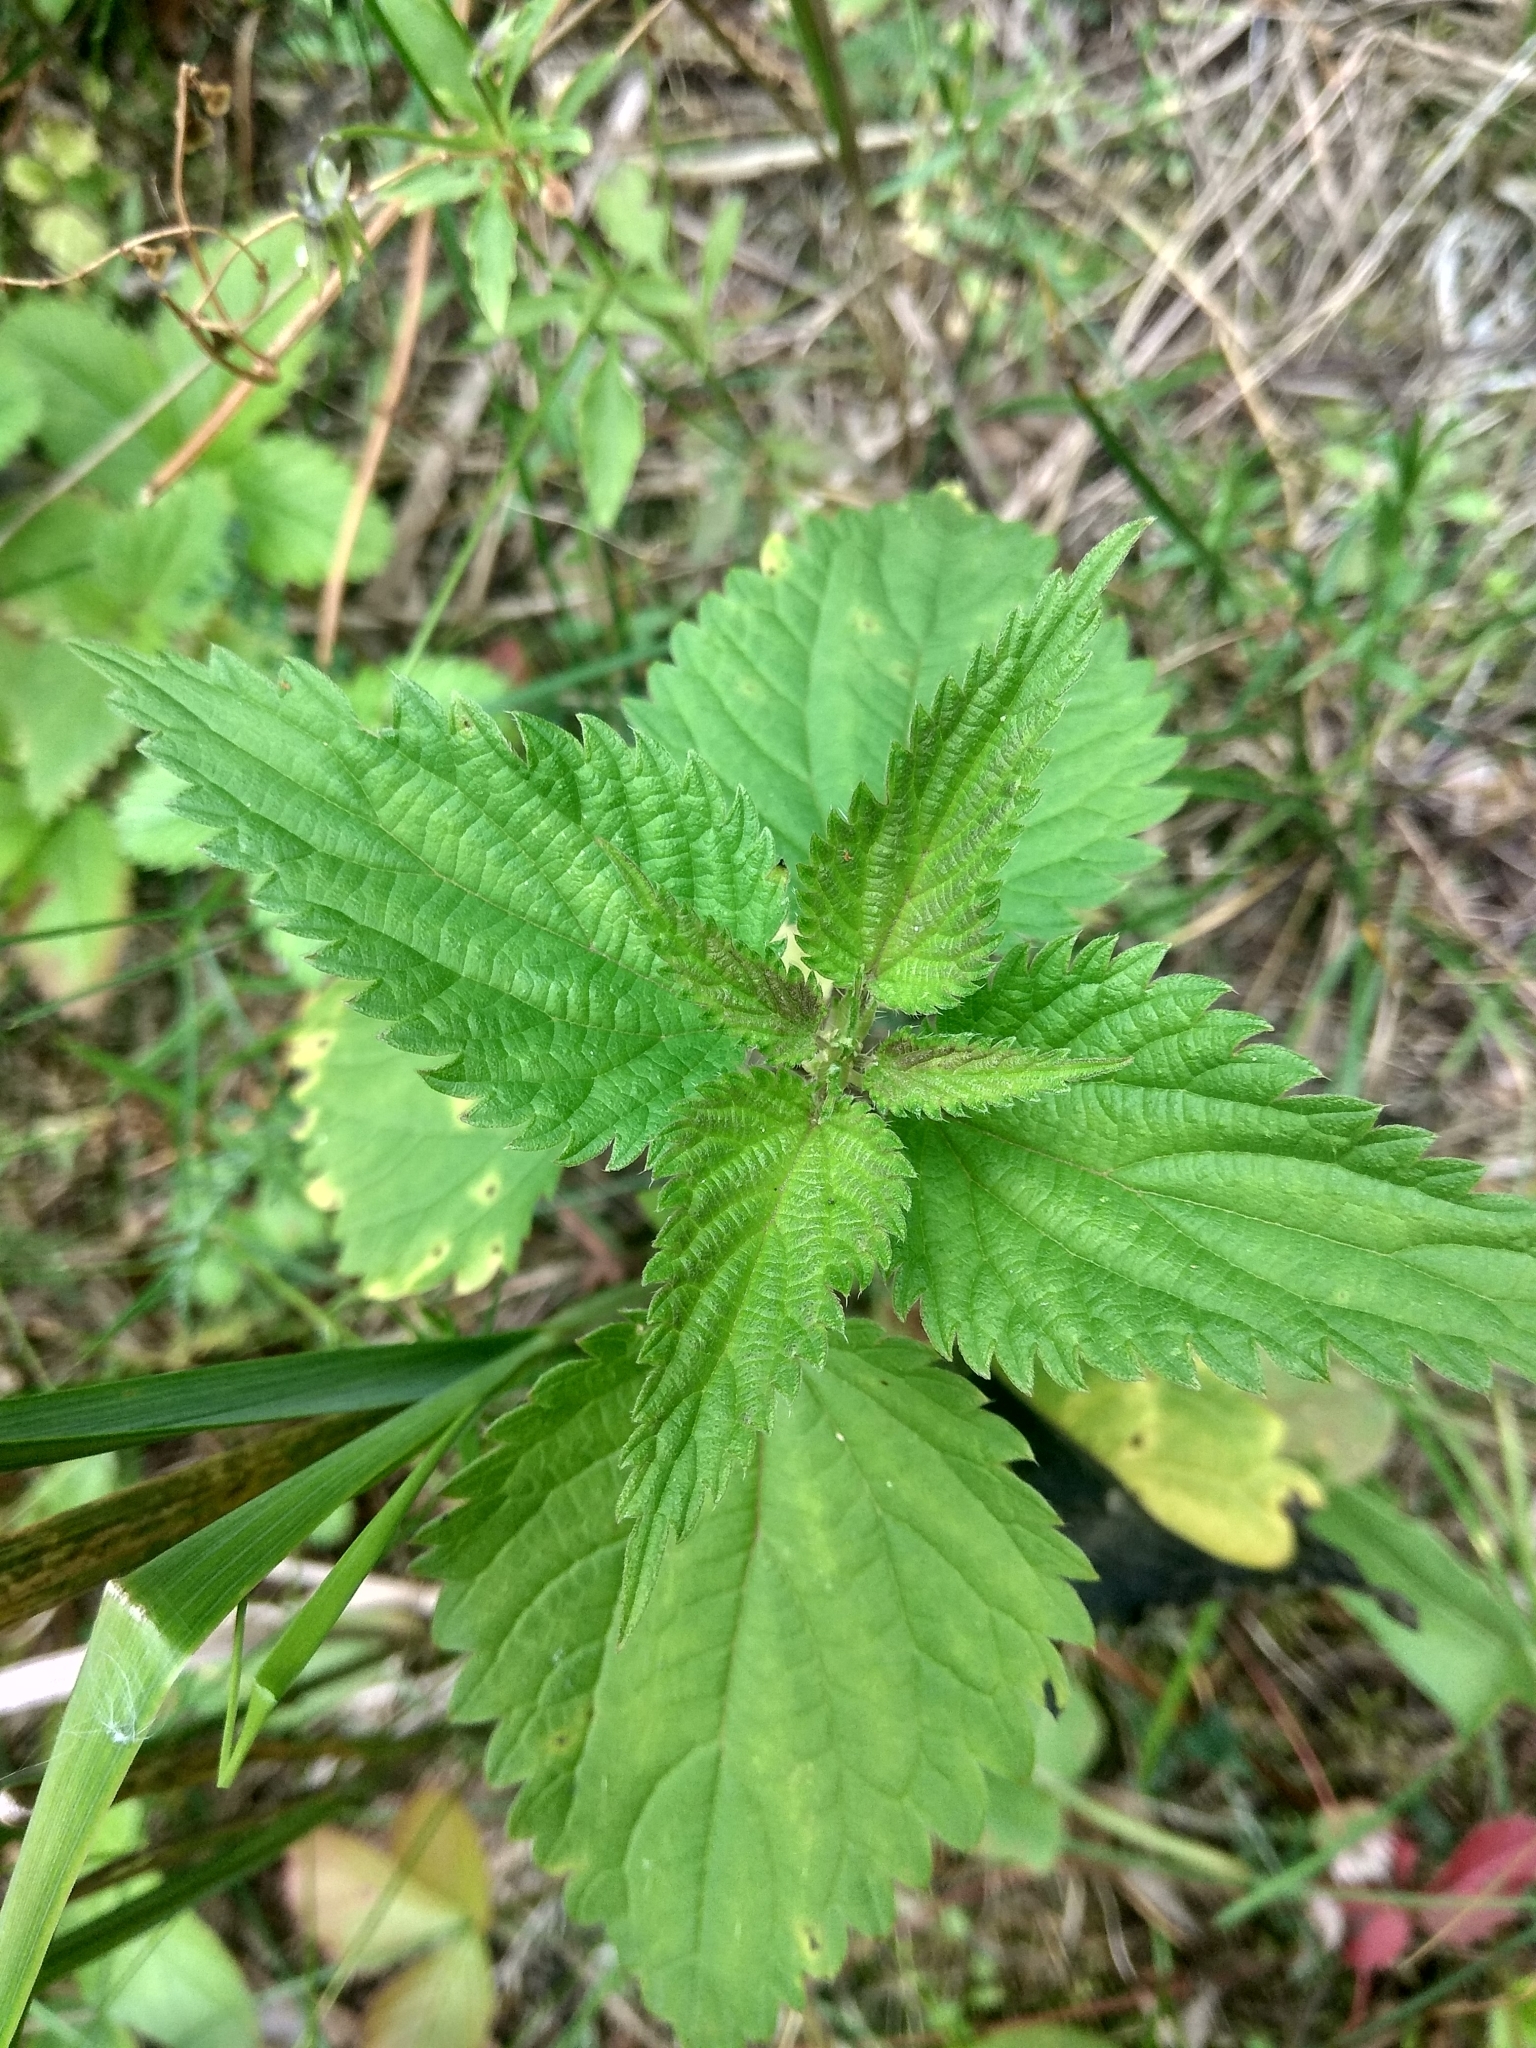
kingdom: Plantae
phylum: Tracheophyta
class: Magnoliopsida
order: Rosales
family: Urticaceae
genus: Urtica
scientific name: Urtica dioica
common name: Common nettle
